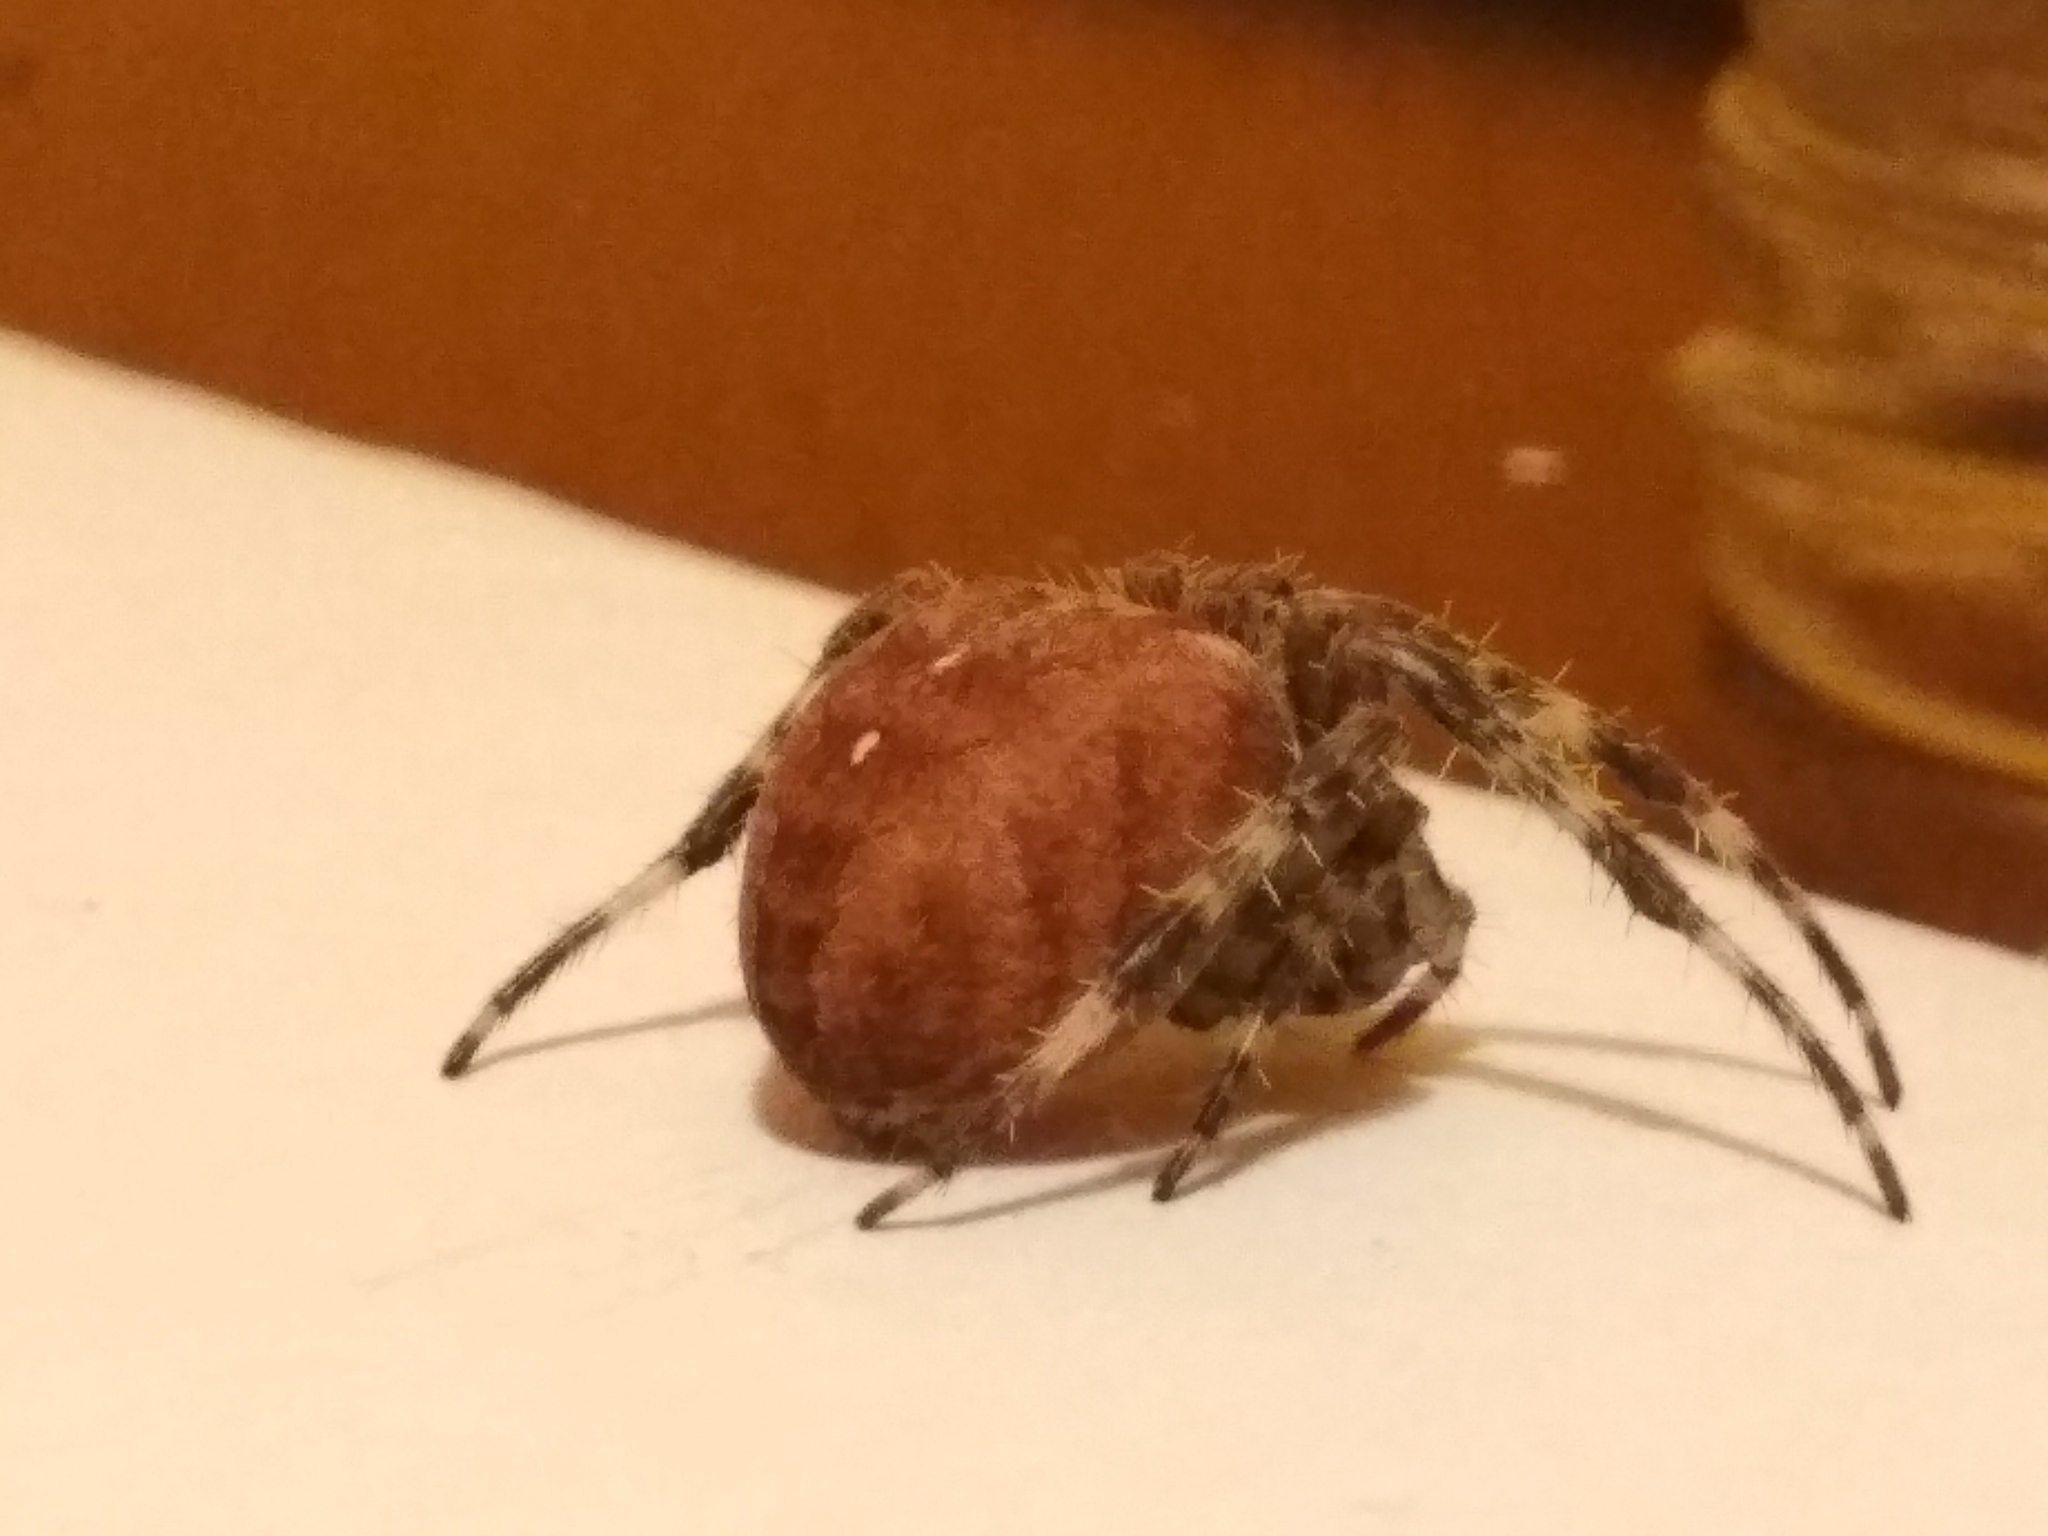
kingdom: Animalia
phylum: Arthropoda
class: Arachnida
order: Araneae
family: Araneidae
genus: Araneus
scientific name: Araneus diadematus
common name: Cross orbweaver
